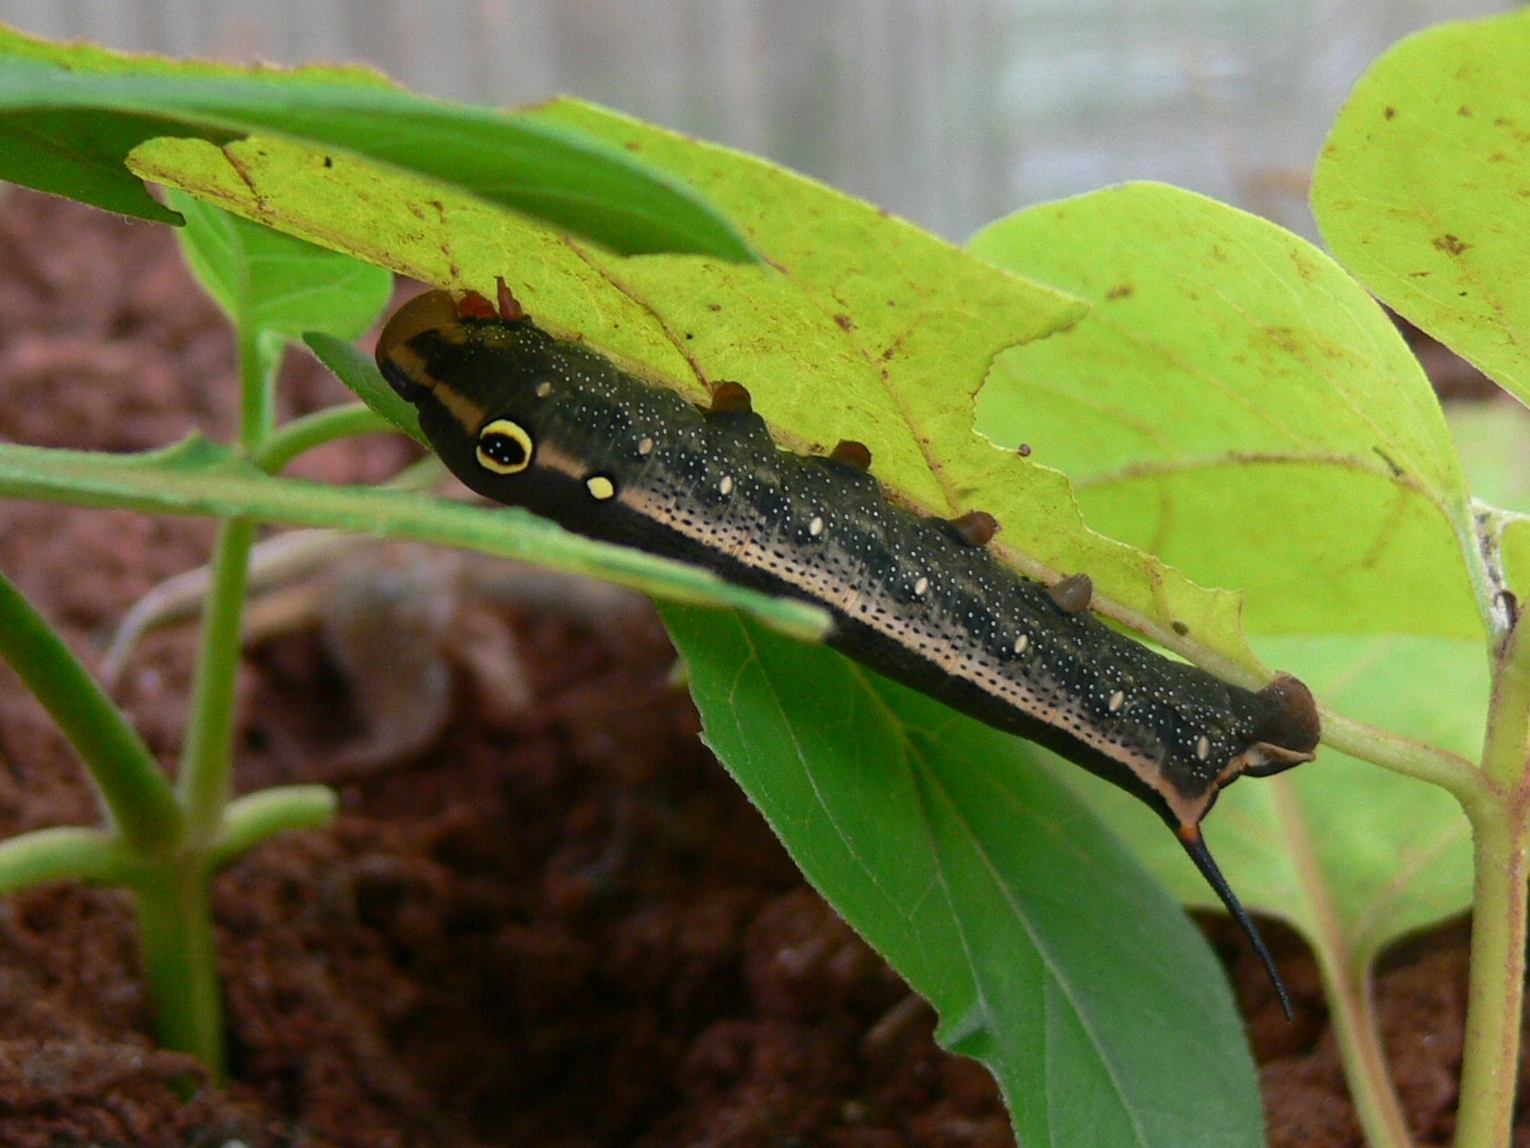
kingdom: Animalia
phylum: Arthropoda
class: Insecta
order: Lepidoptera
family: Sphingidae
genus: Hippotion
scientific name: Hippotion celerio
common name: Silver-striped hawk-moth
